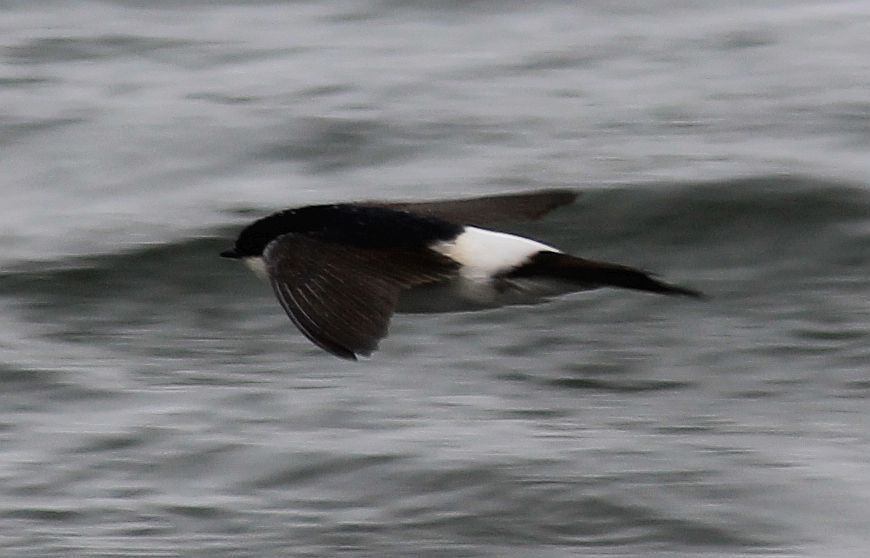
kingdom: Animalia
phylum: Chordata
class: Aves
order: Passeriformes
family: Hirundinidae
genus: Delichon
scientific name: Delichon urbicum
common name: Common house martin
